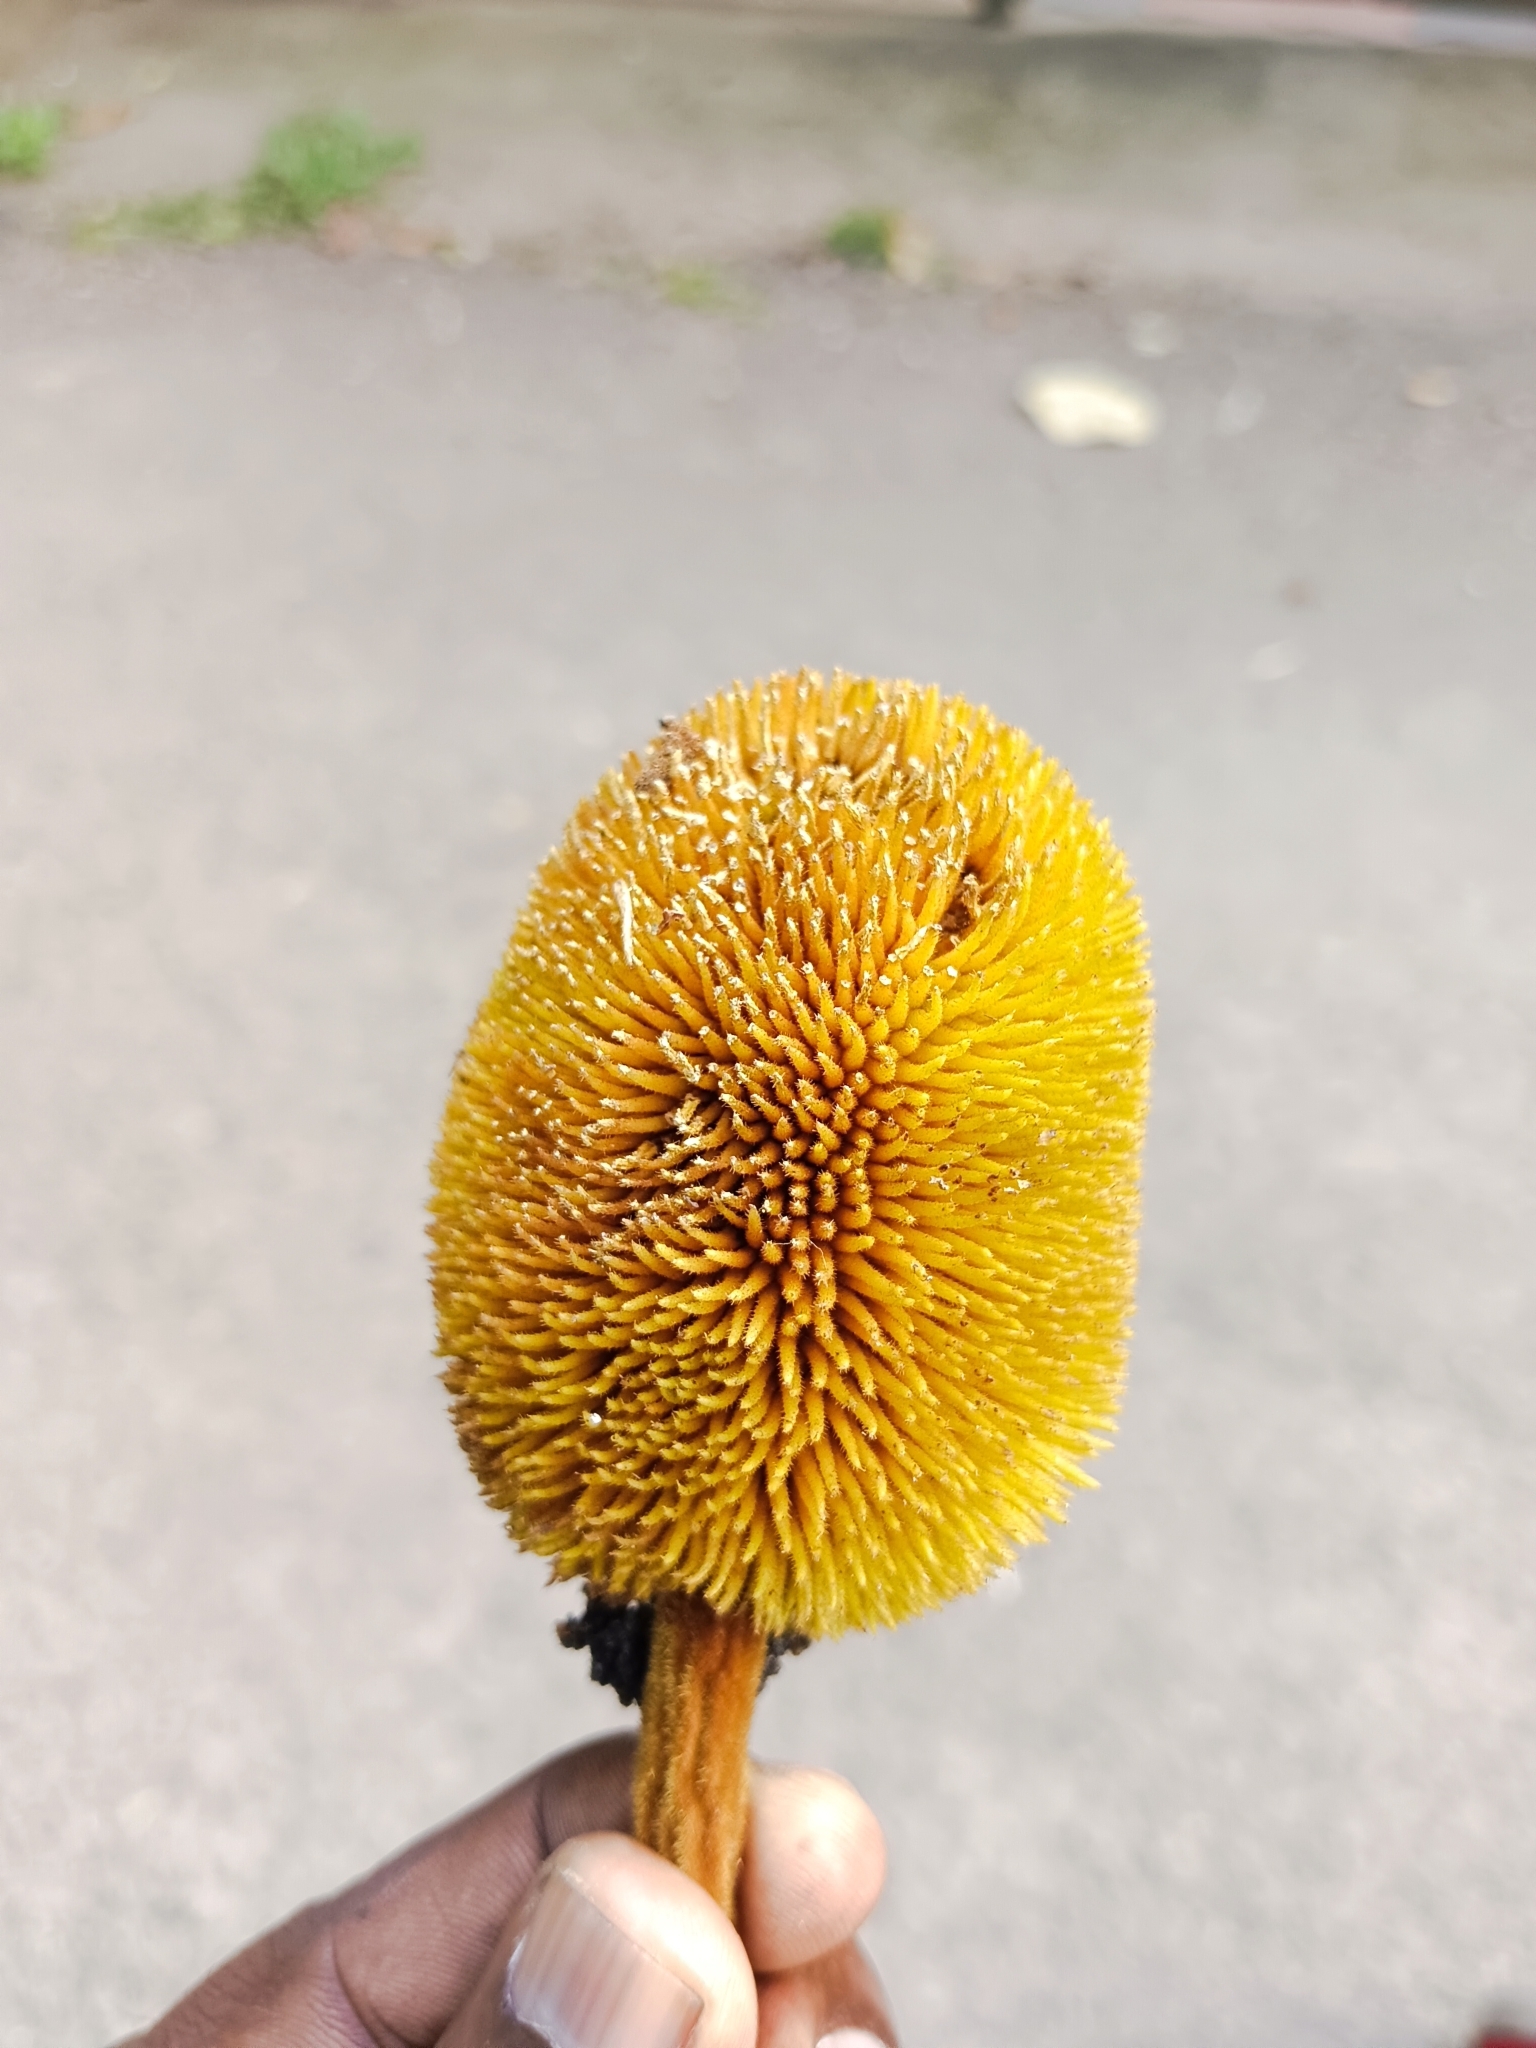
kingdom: Plantae
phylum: Tracheophyta
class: Magnoliopsida
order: Rosales
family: Moraceae
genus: Artocarpus
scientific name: Artocarpus hirsutus
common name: Hairy bread-fruit tree
